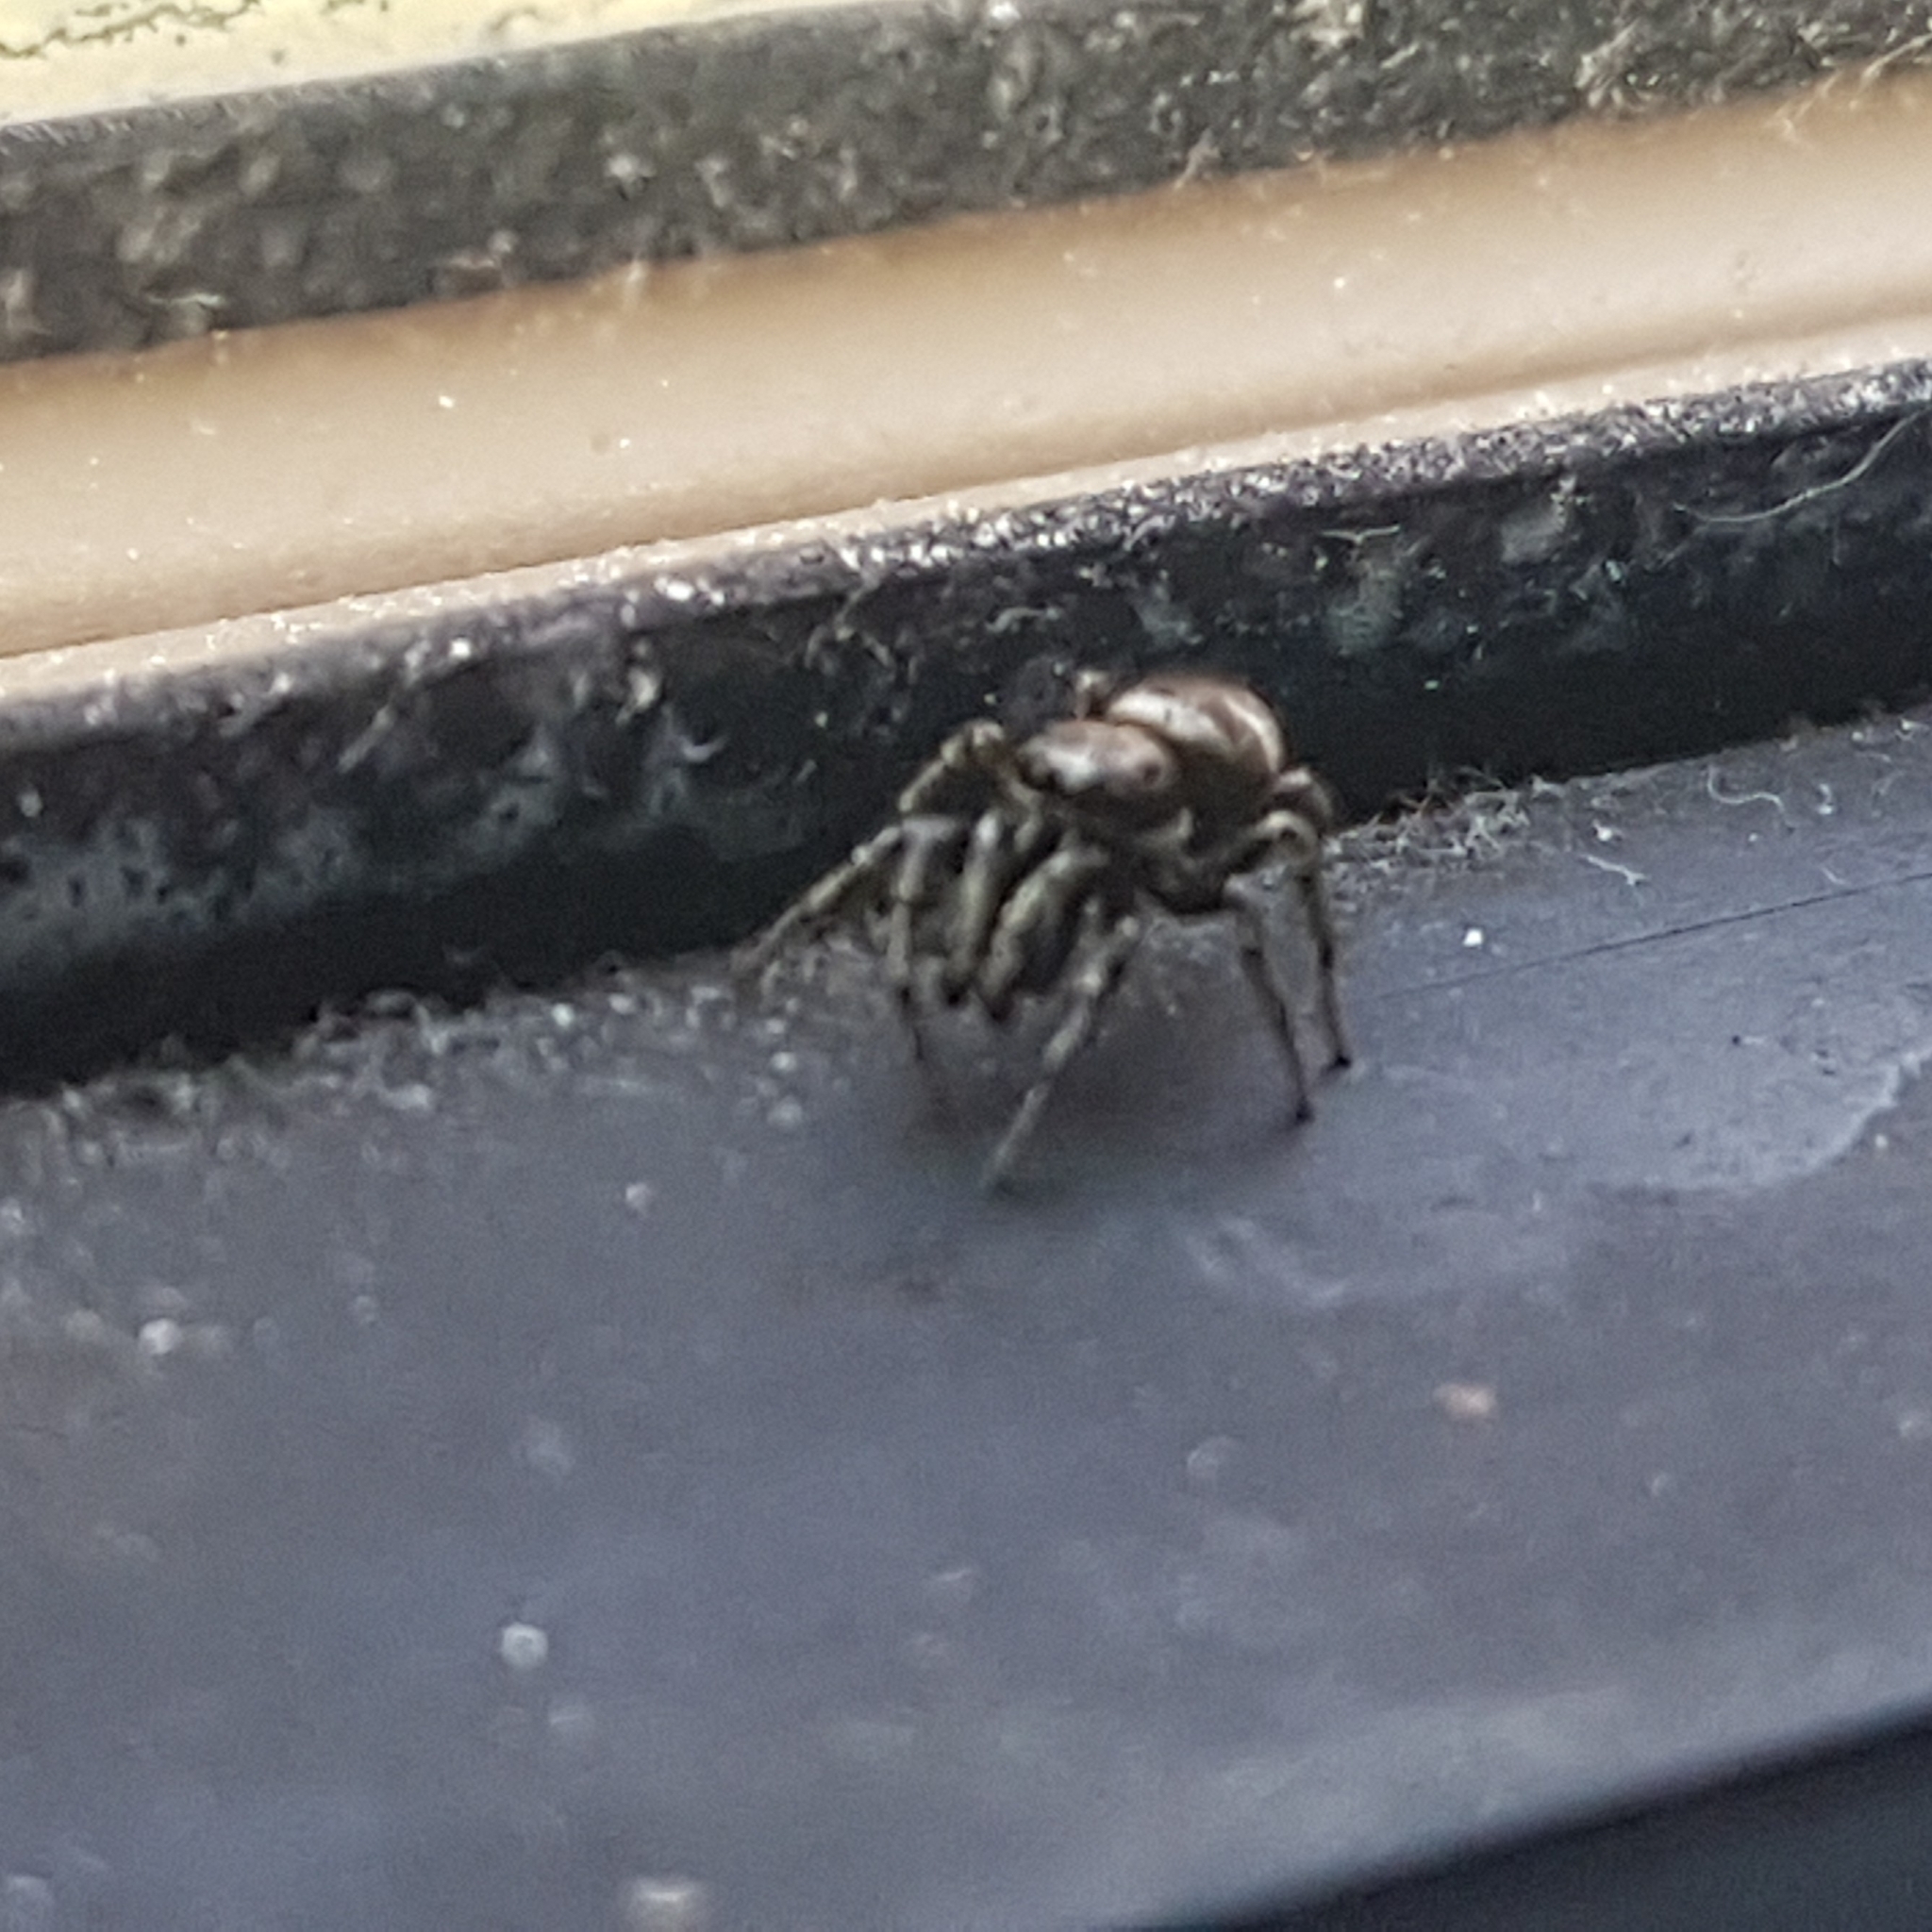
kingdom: Animalia
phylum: Arthropoda
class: Arachnida
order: Araneae
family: Salticidae
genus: Salticus
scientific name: Salticus scenicus
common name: Zebra jumper
